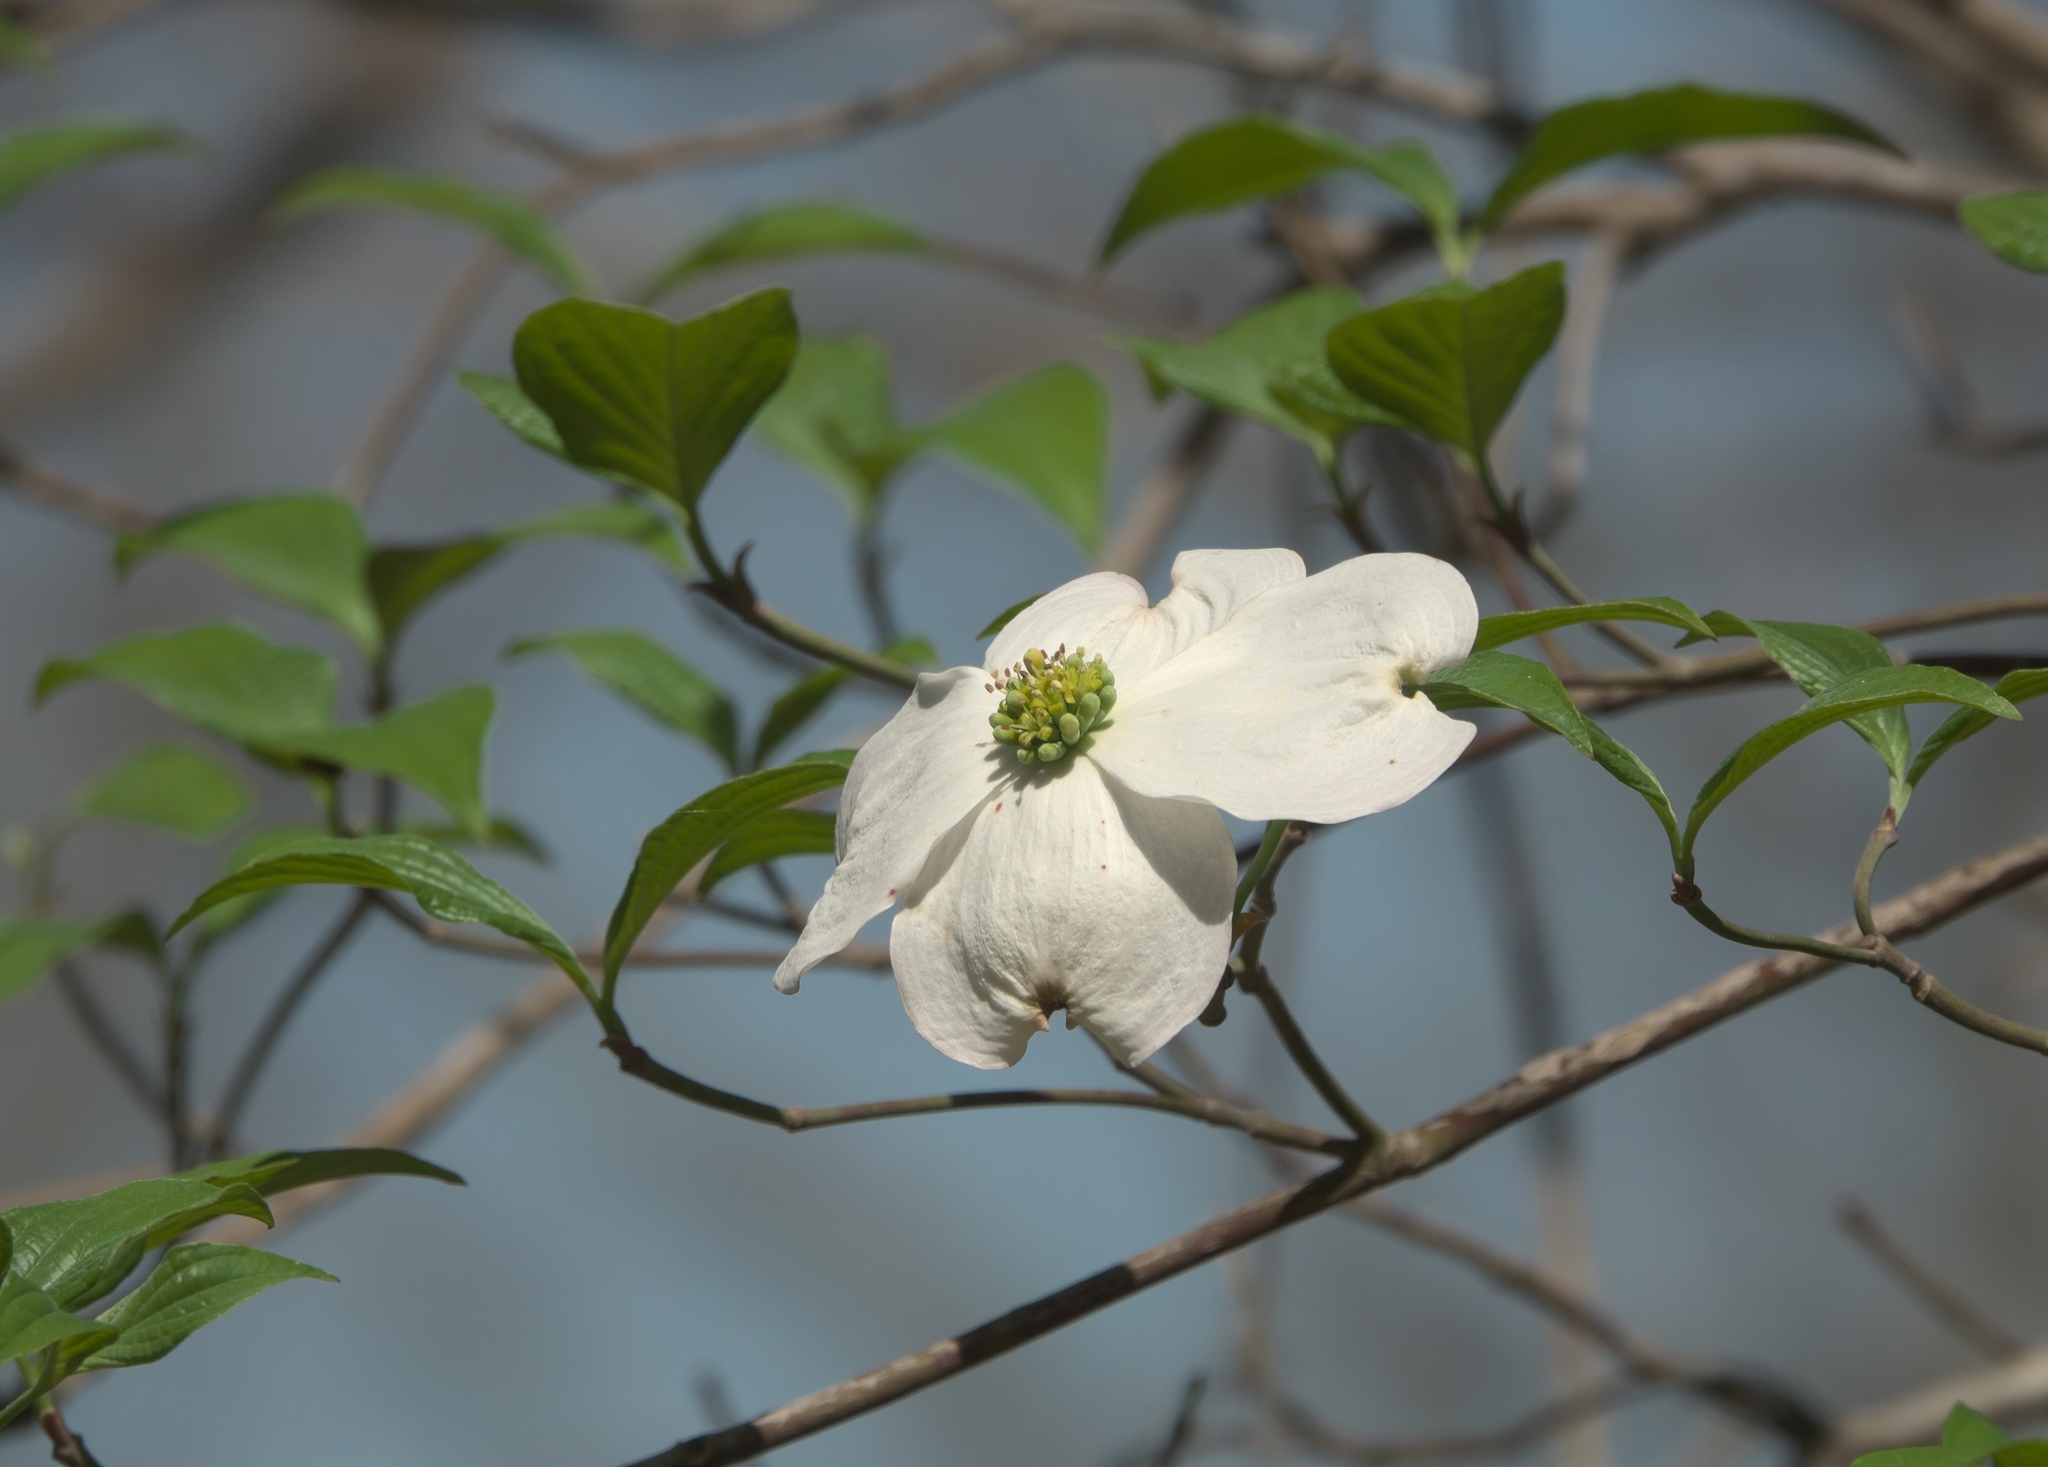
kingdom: Plantae
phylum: Tracheophyta
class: Magnoliopsida
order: Cornales
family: Cornaceae
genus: Cornus
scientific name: Cornus florida
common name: Flowering dogwood
